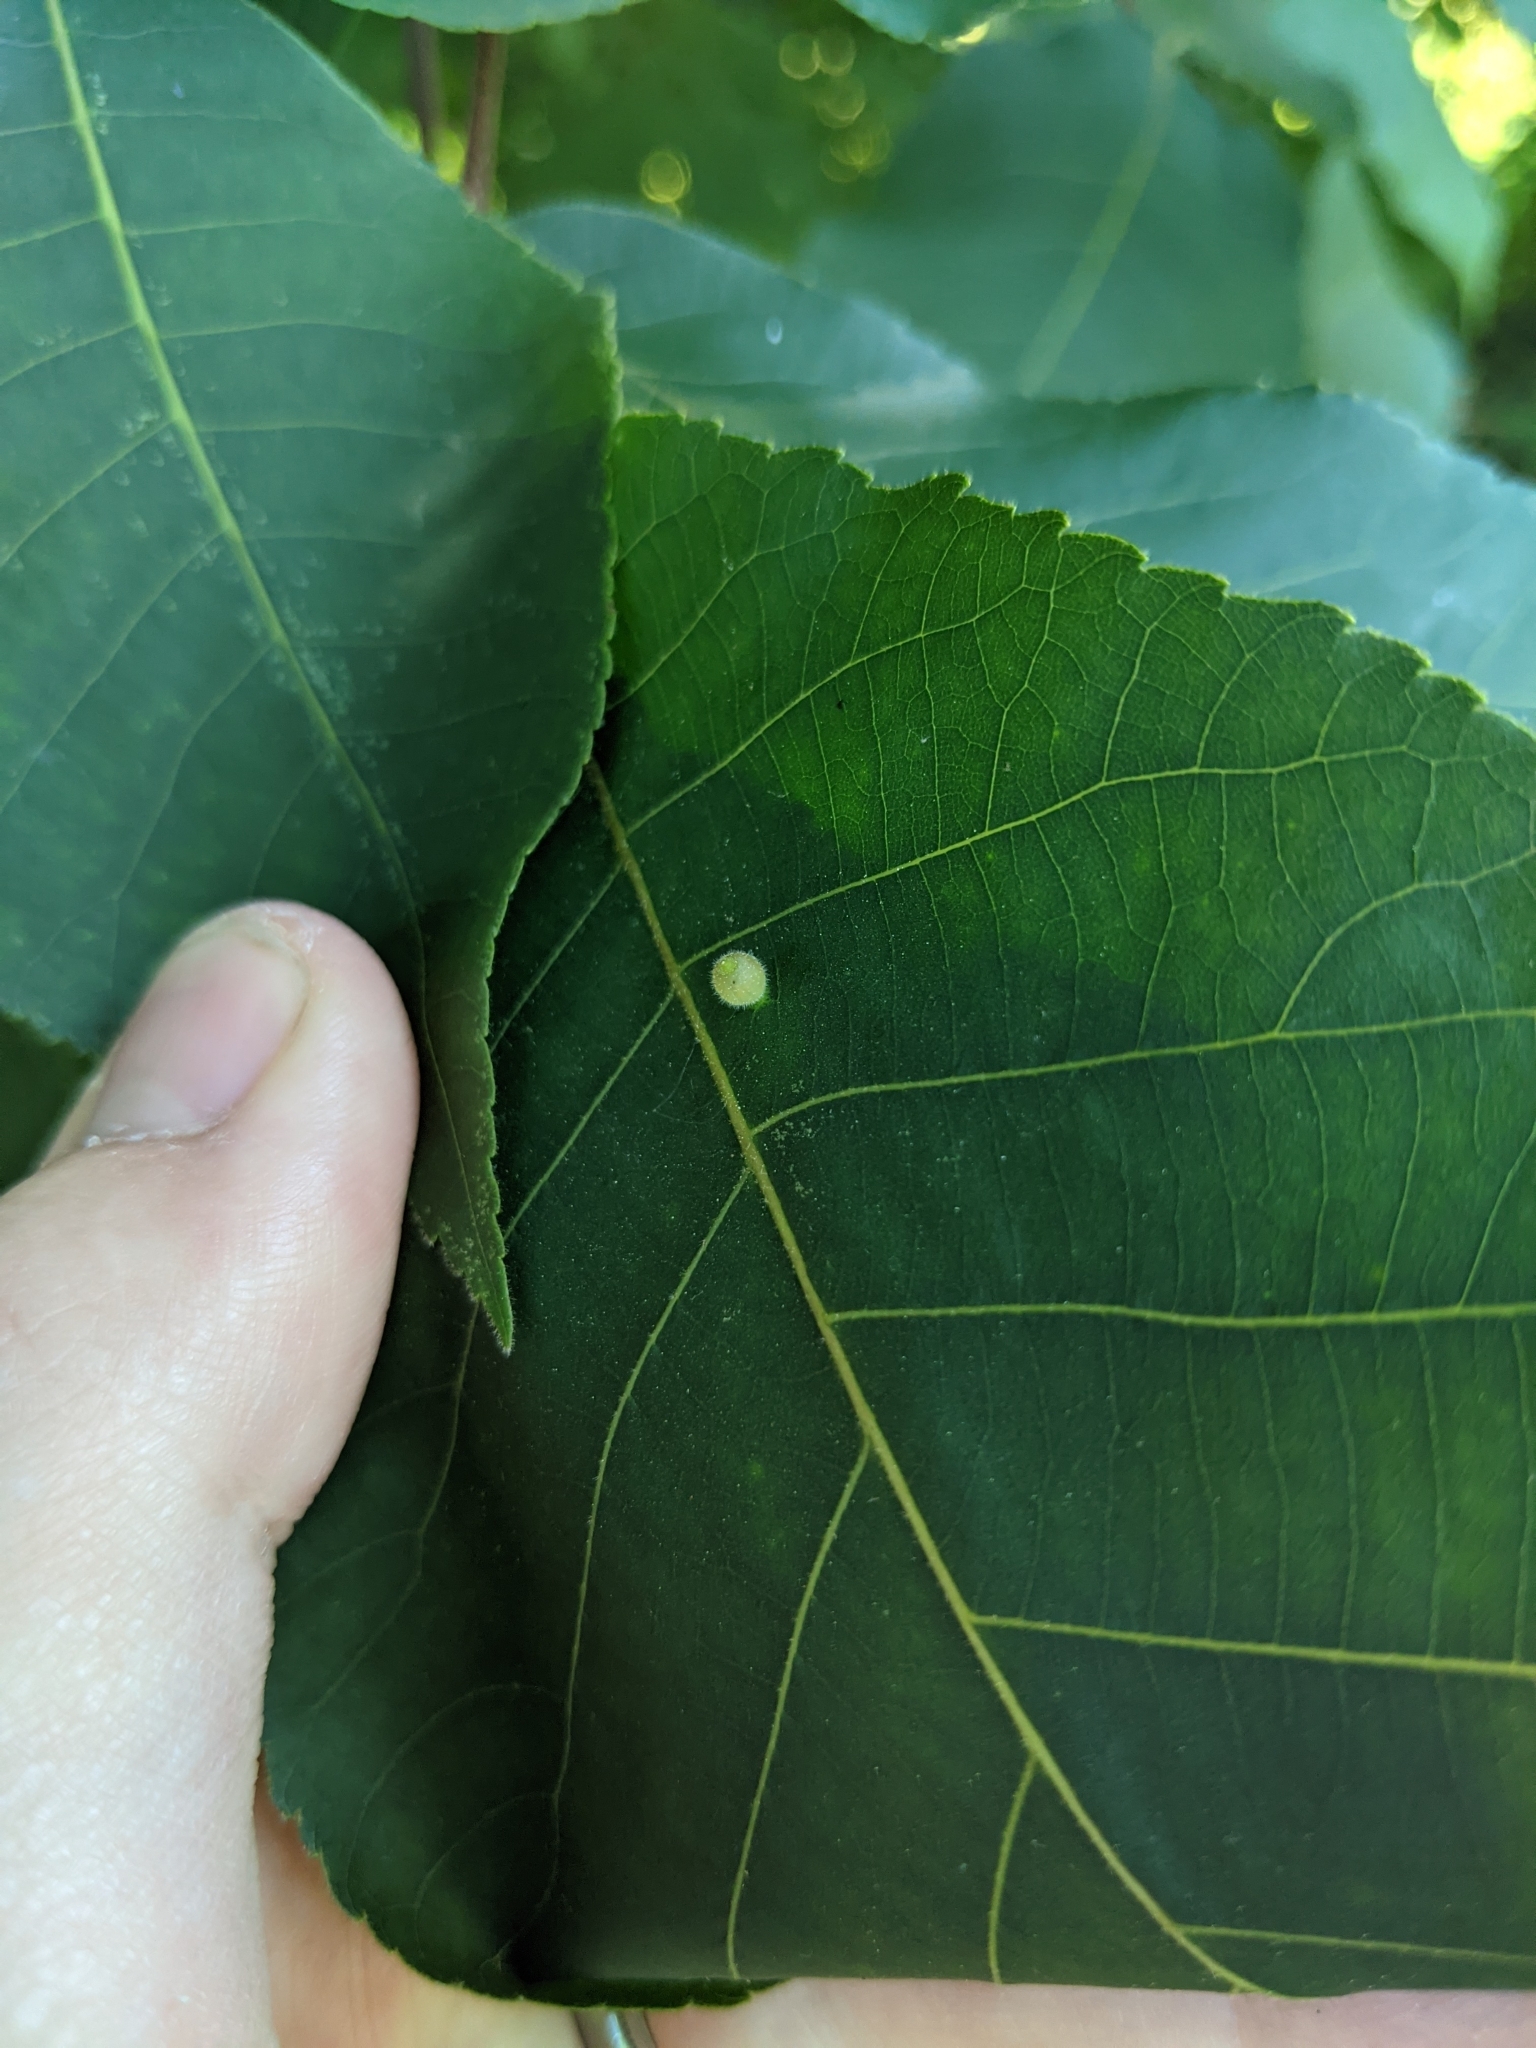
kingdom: Animalia
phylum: Arthropoda
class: Insecta
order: Diptera
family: Cecidomyiidae
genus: Caryomyia
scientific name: Caryomyia viscidolium
